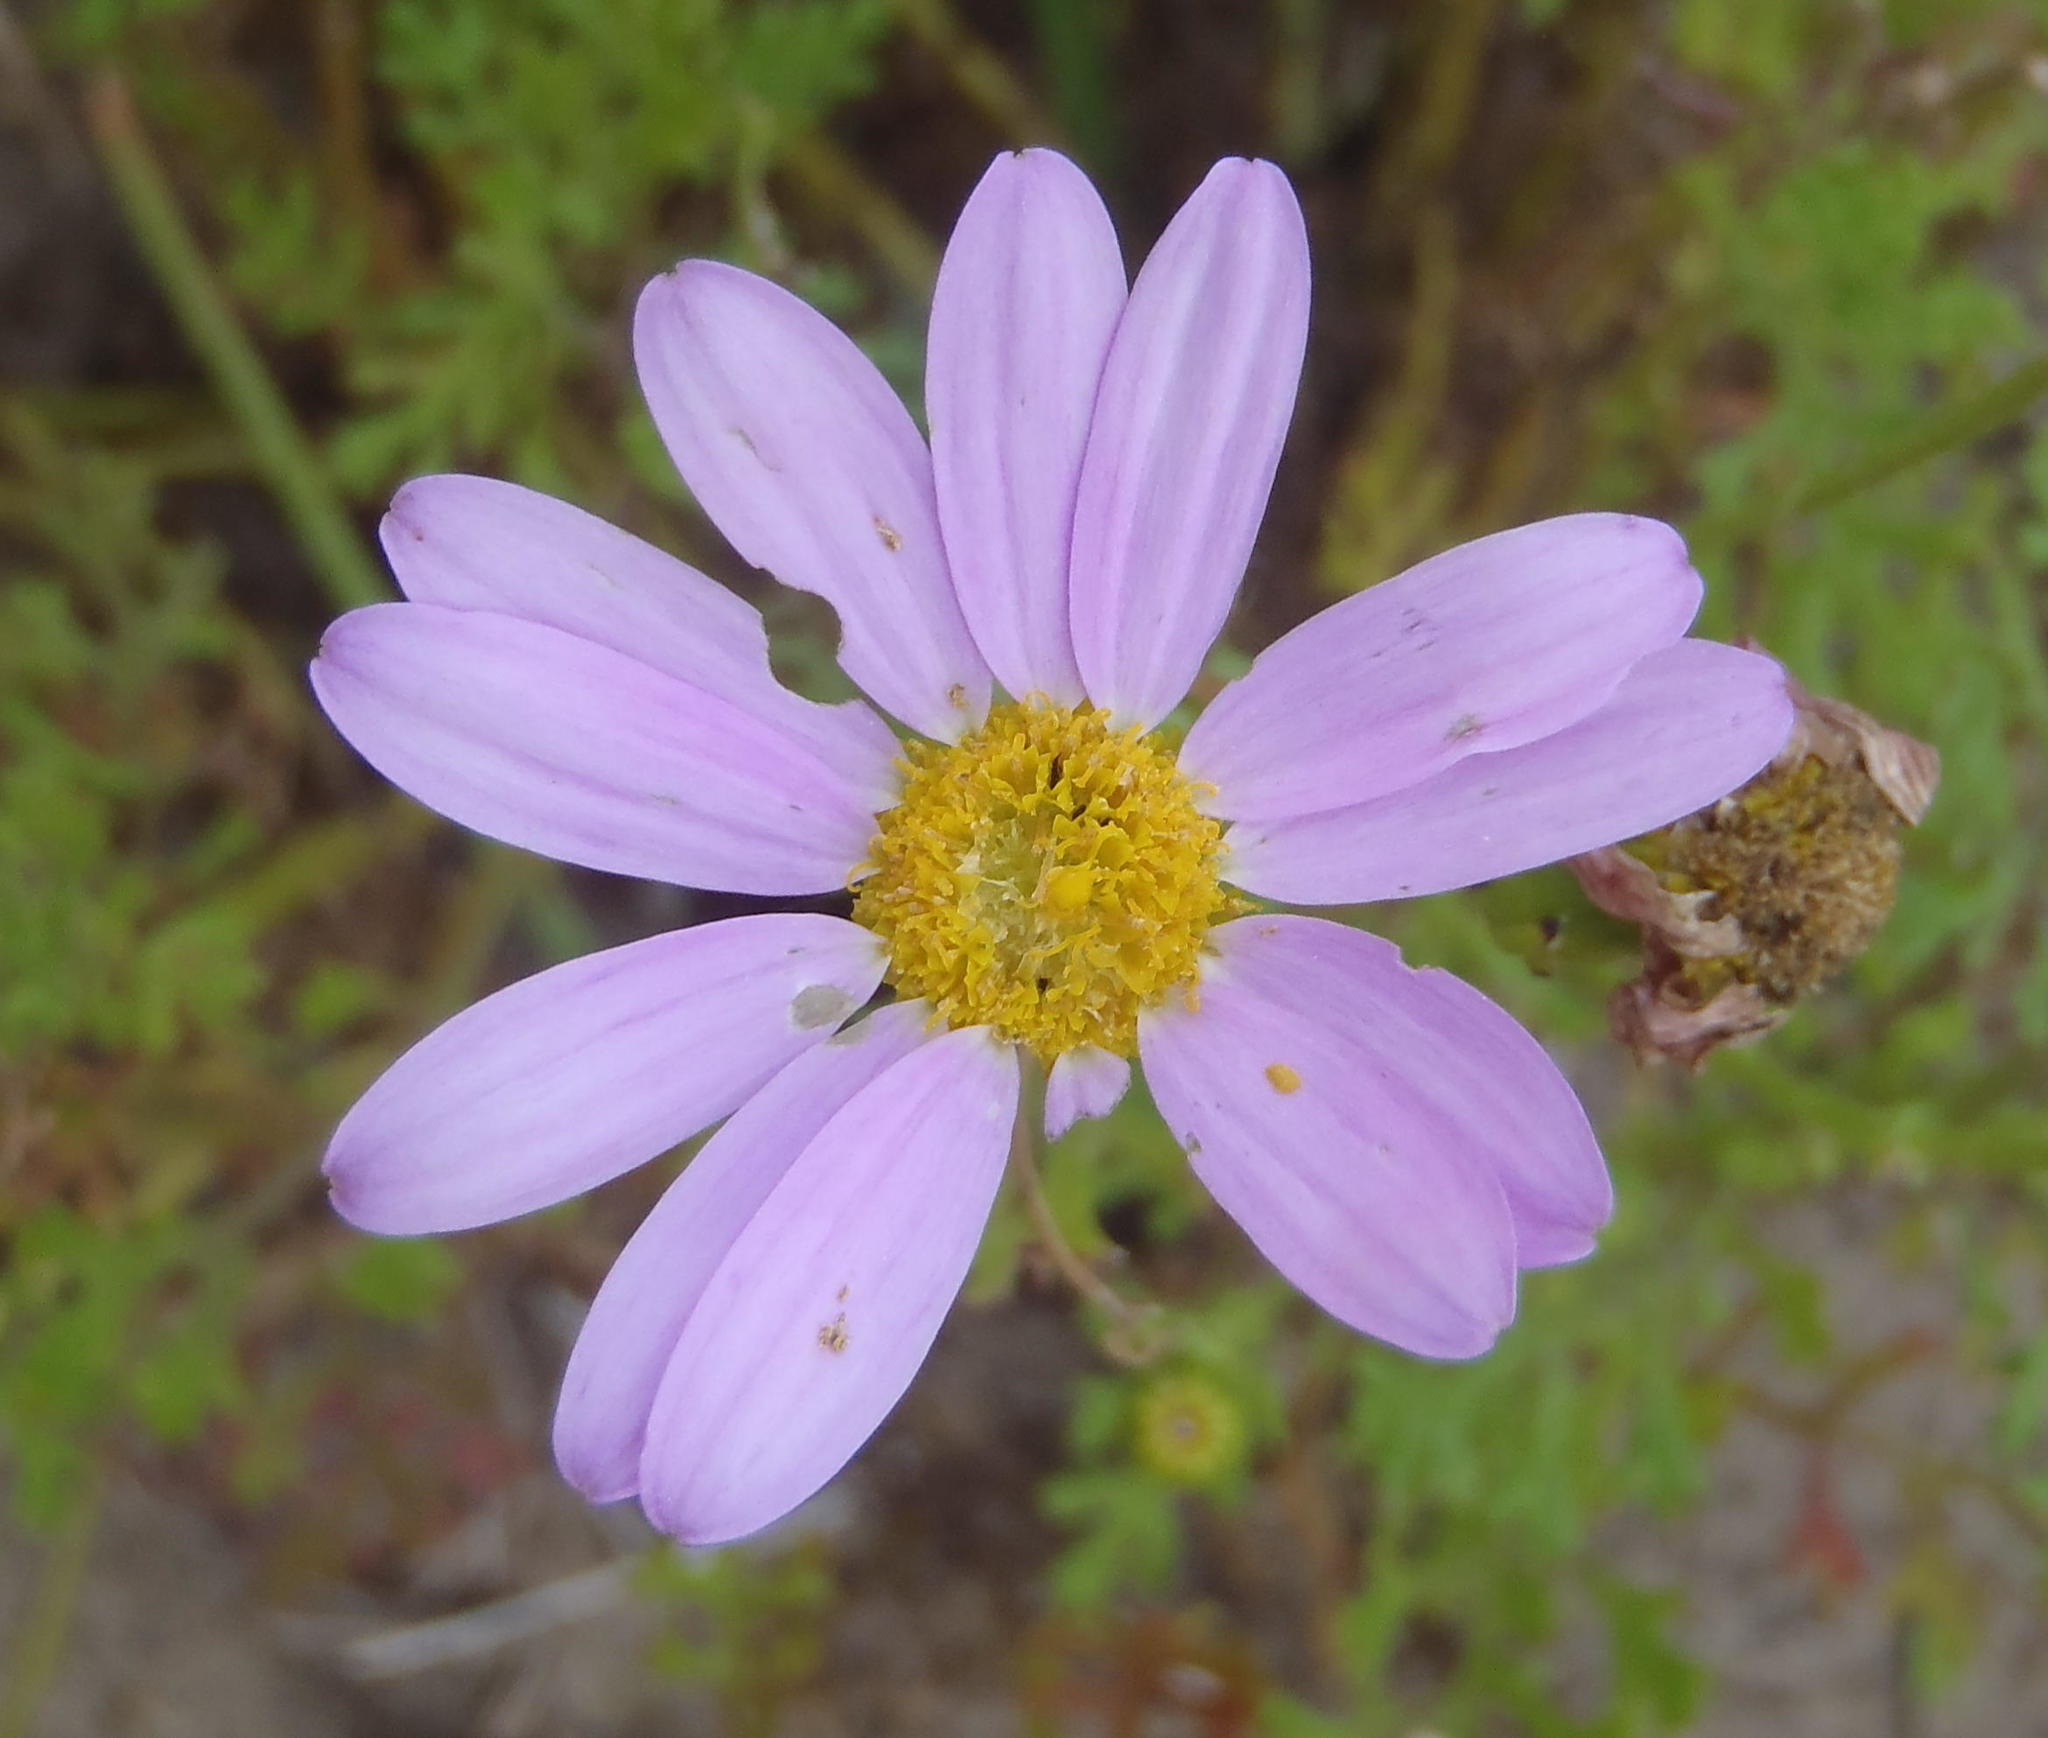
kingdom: Plantae
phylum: Tracheophyta
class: Magnoliopsida
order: Asterales
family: Asteraceae
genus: Senecio
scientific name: Senecio elegans
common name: Purple groundsel
